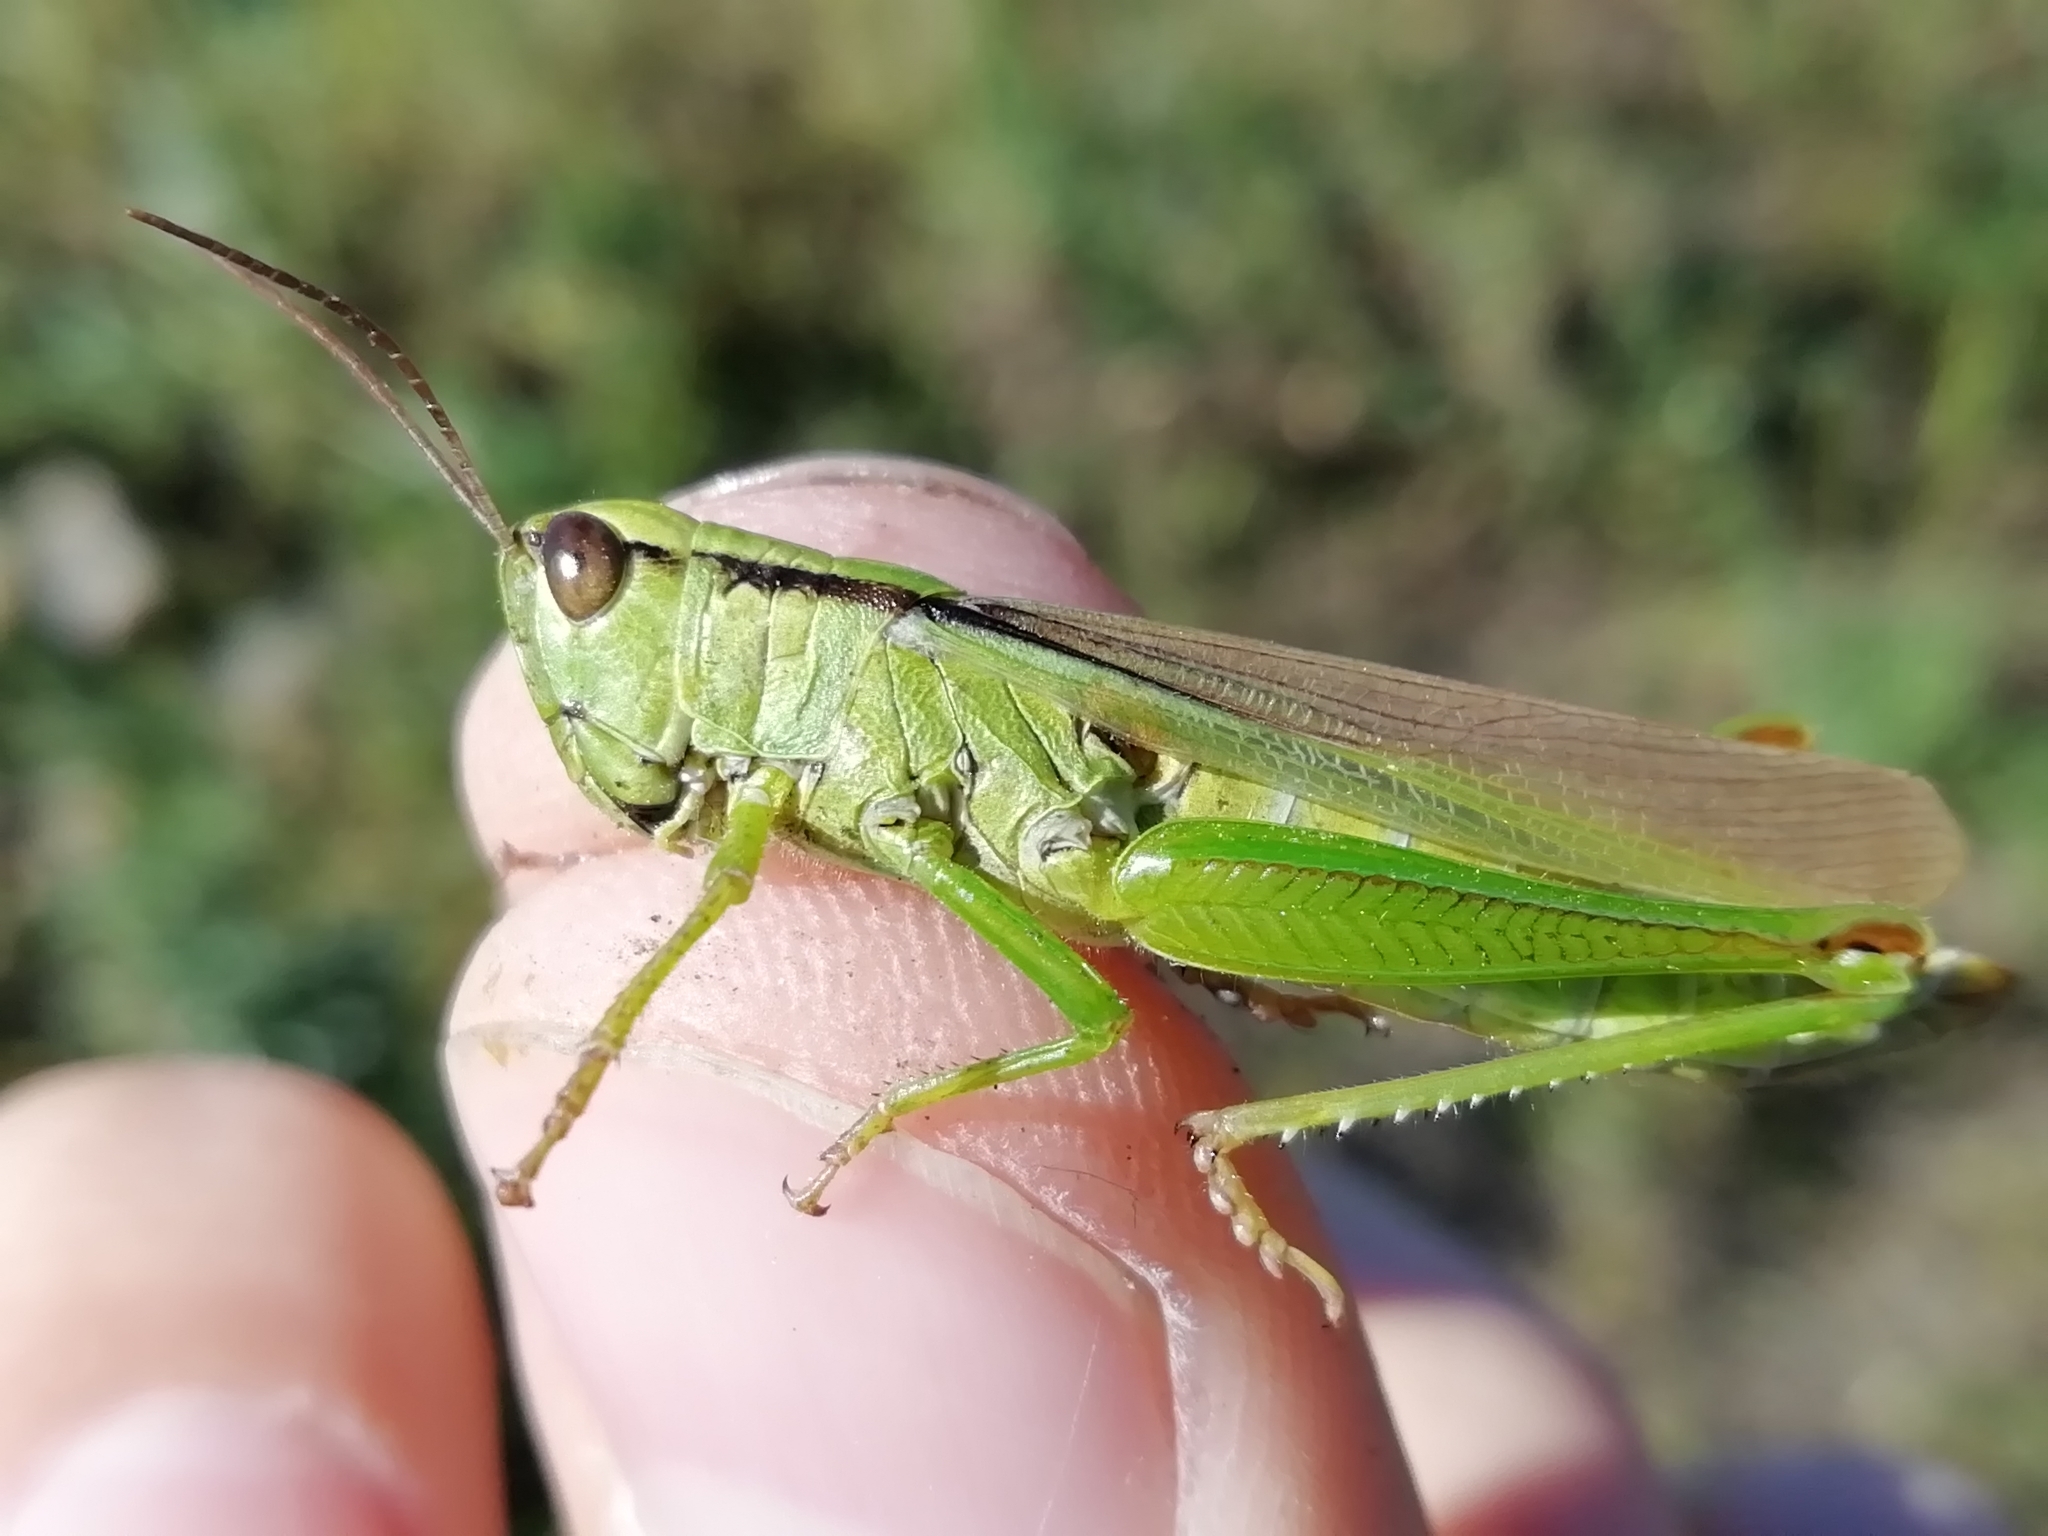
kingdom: Animalia
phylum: Arthropoda
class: Insecta
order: Orthoptera
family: Acrididae
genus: Mecostethus
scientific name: Mecostethus parapleurus
